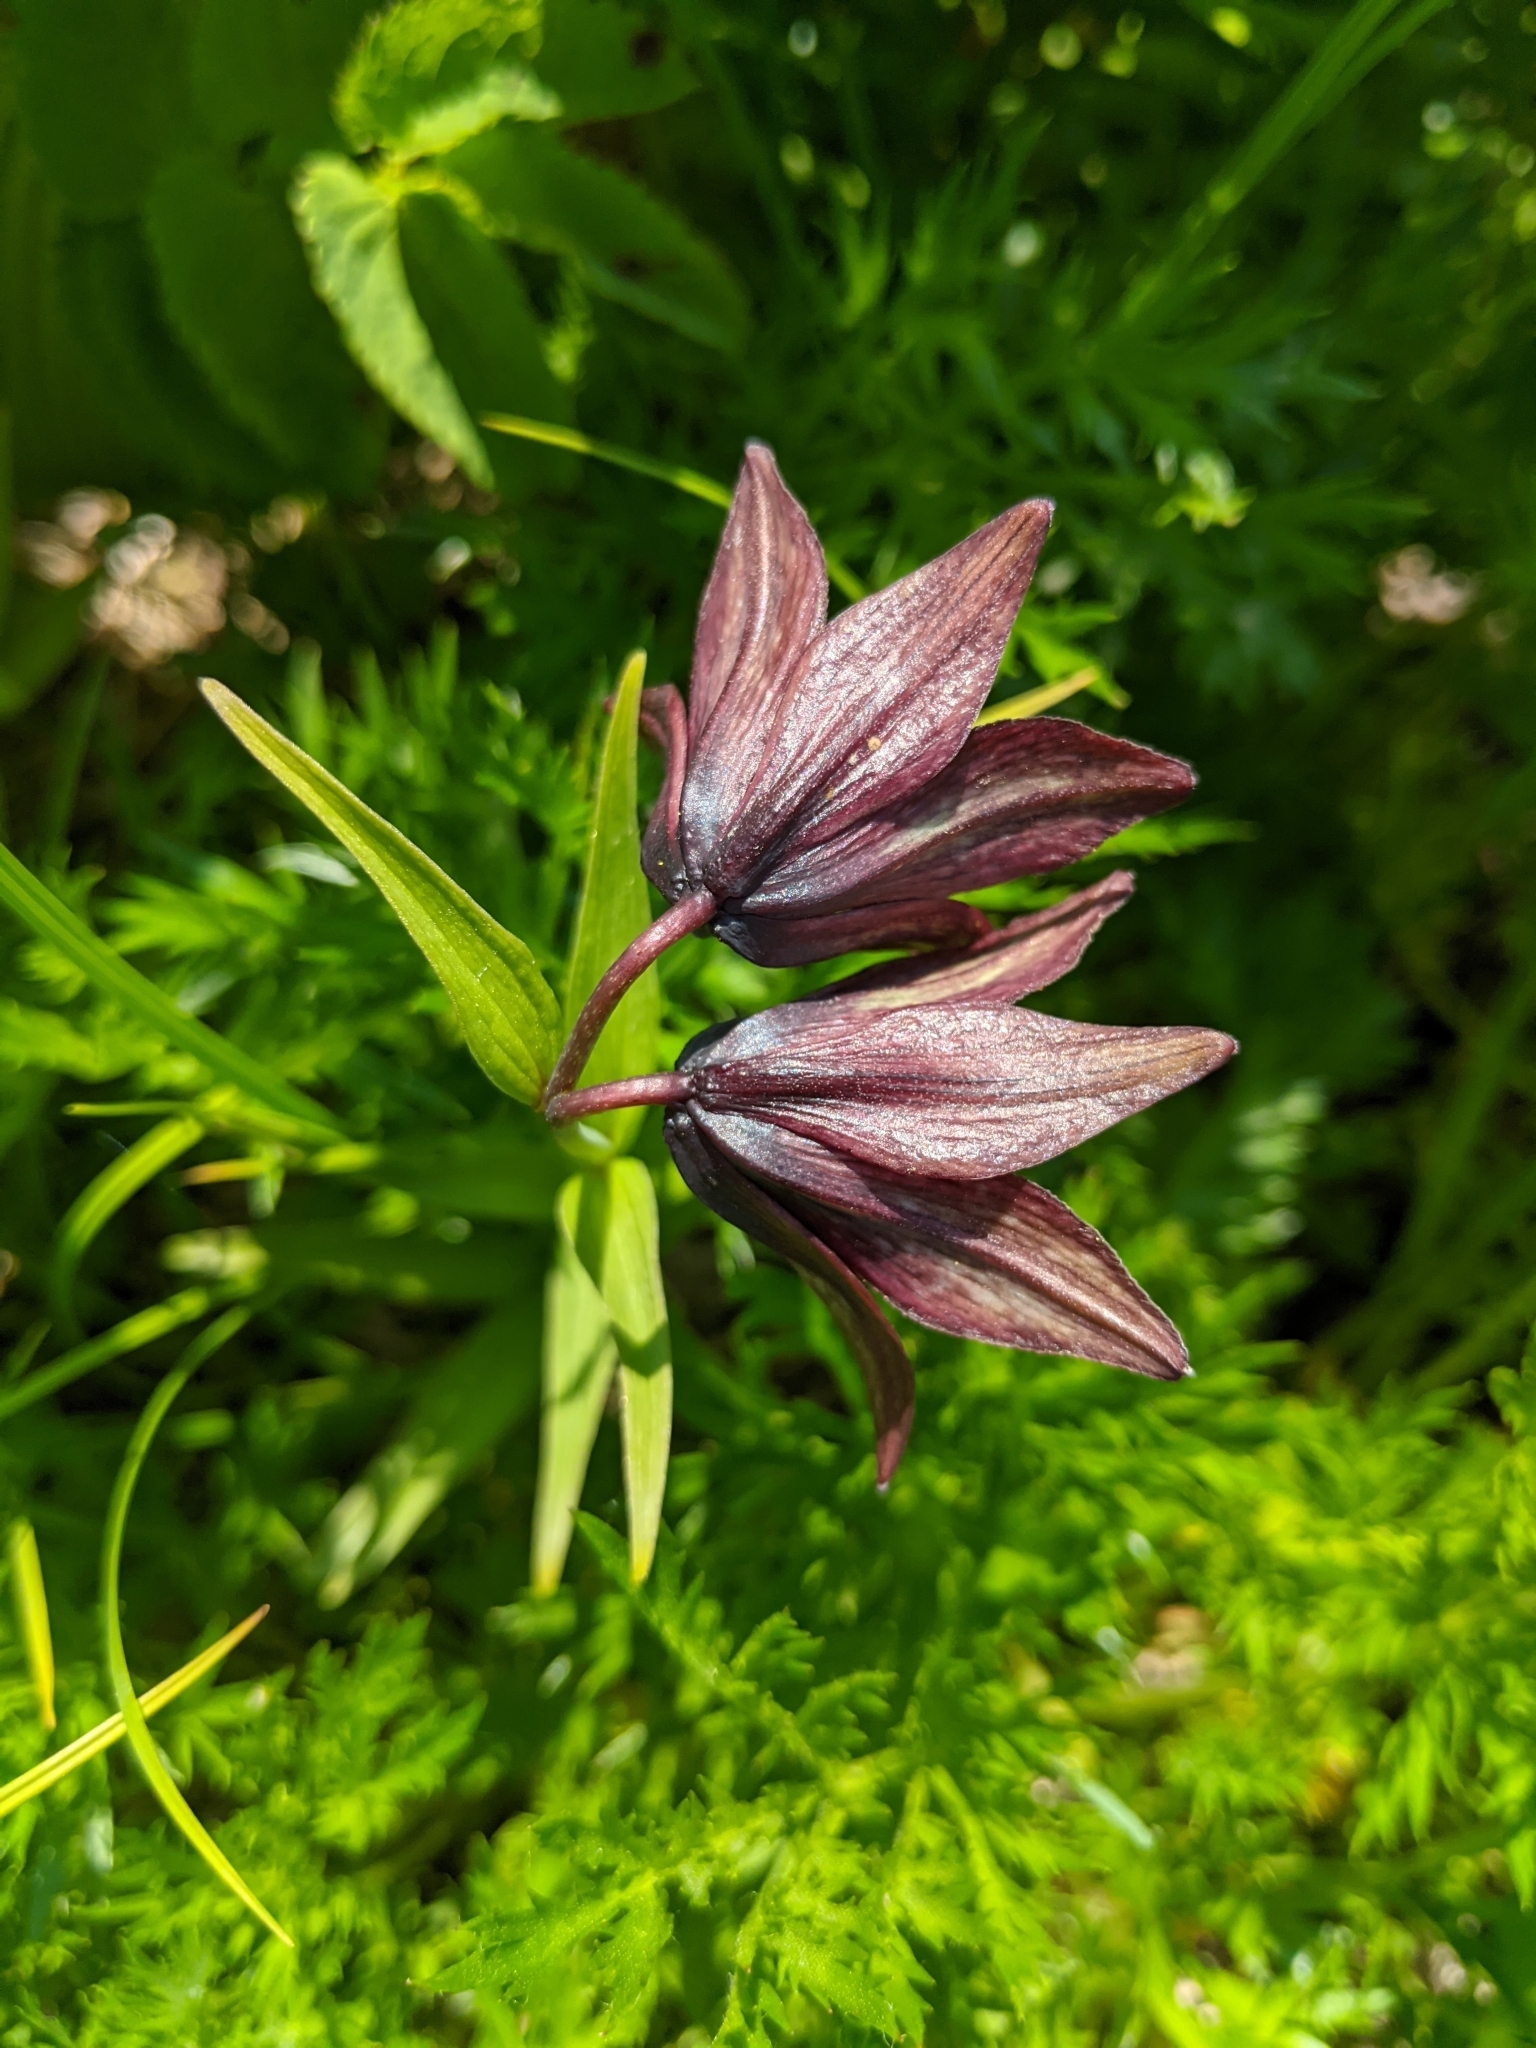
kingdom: Plantae
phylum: Tracheophyta
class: Liliopsida
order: Liliales
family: Liliaceae
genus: Fritillaria
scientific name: Fritillaria camschatcensis
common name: Kamchatka fritillary
